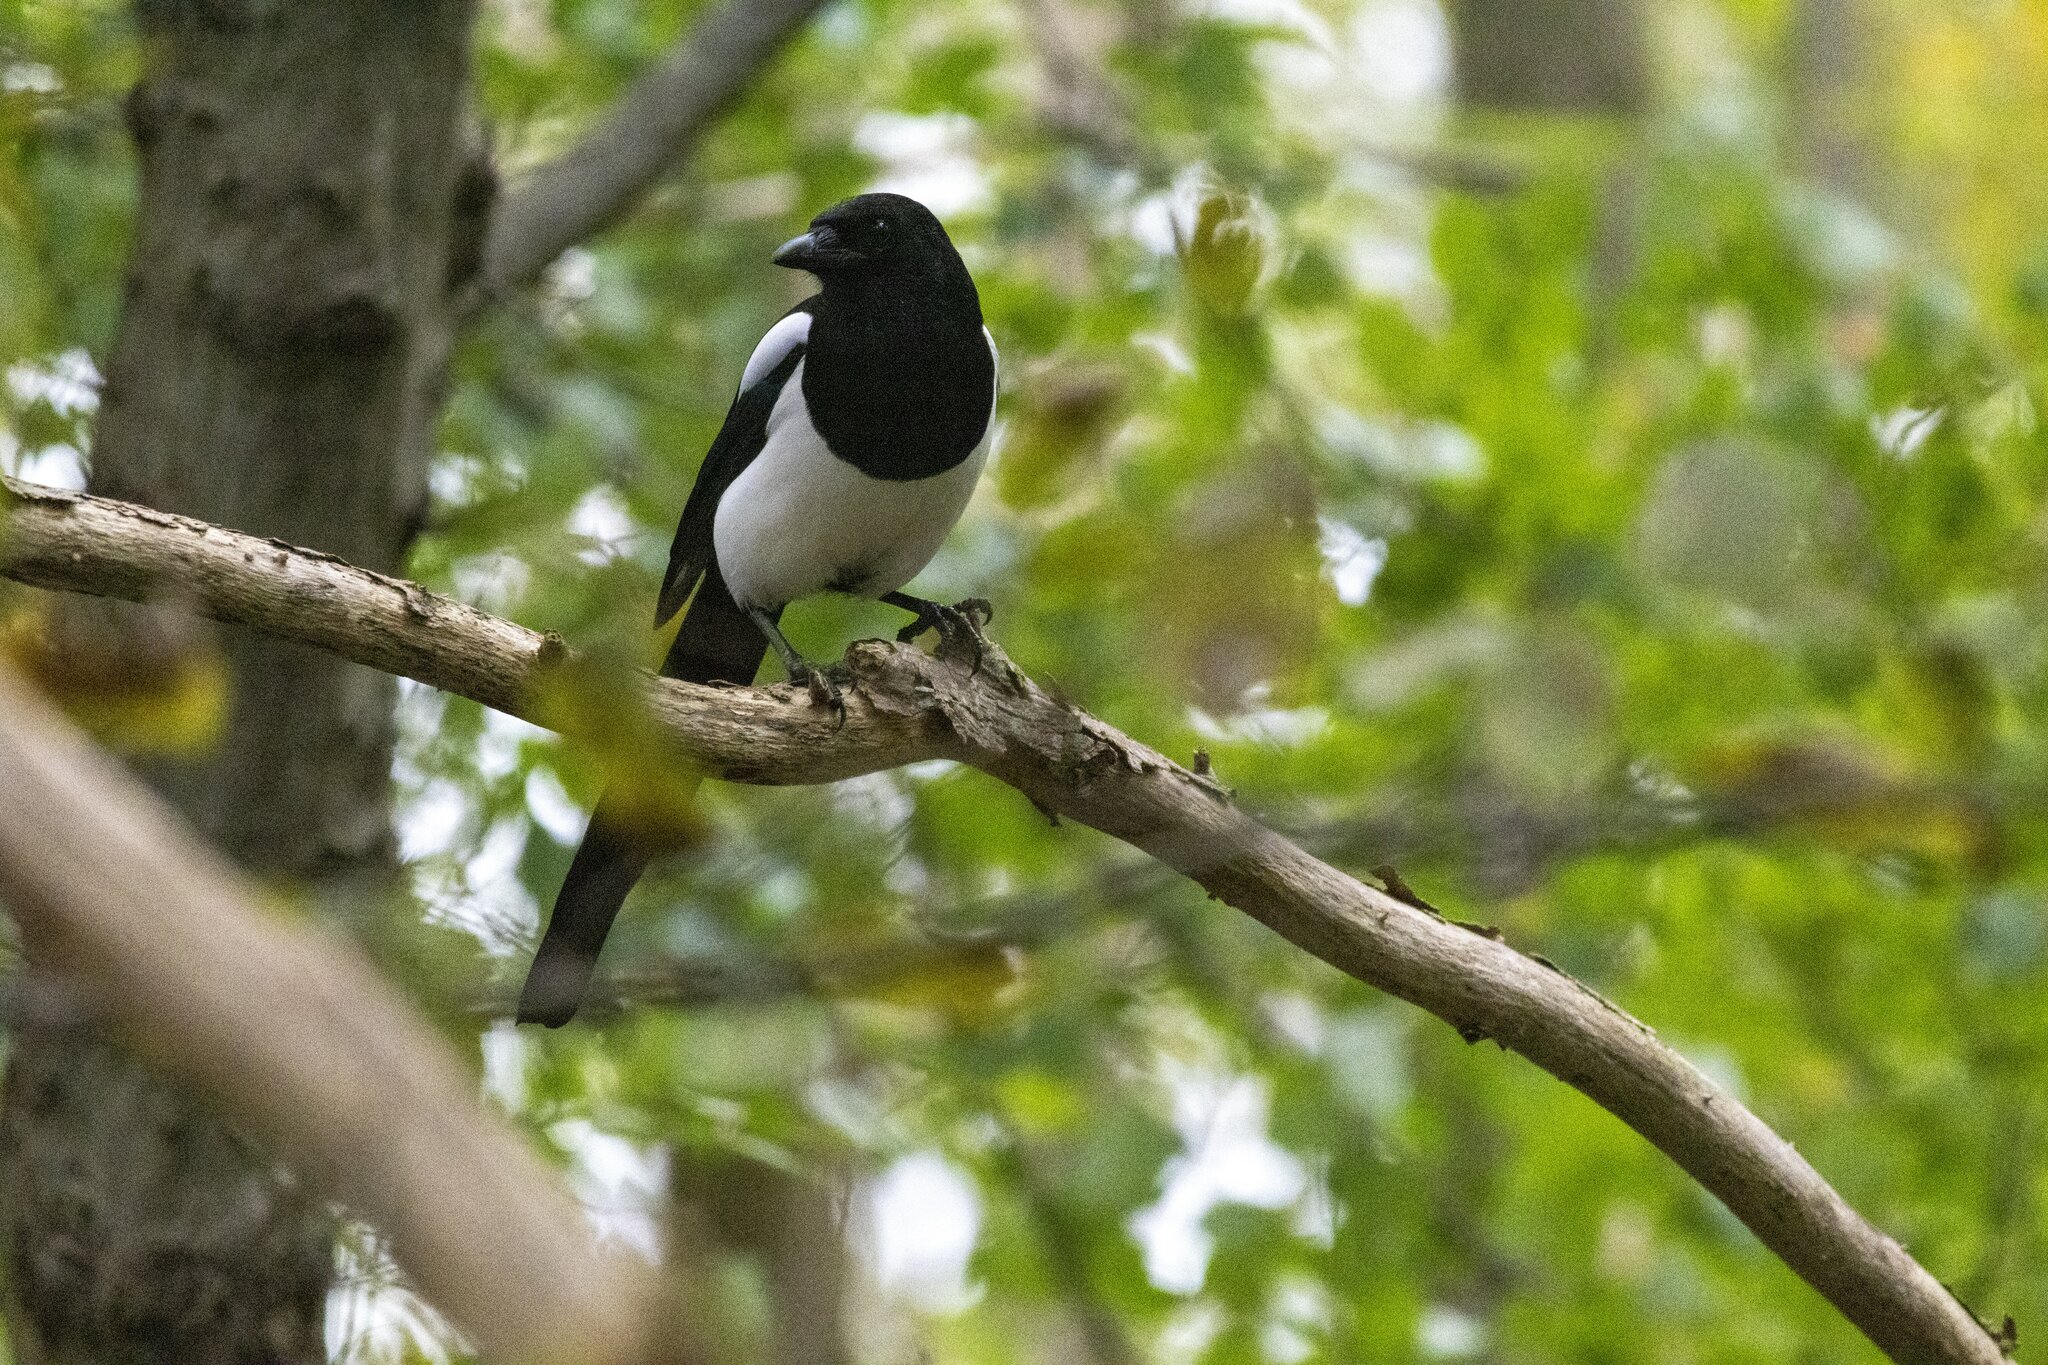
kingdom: Animalia
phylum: Chordata
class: Aves
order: Passeriformes
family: Corvidae
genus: Pica
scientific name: Pica pica
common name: Eurasian magpie
